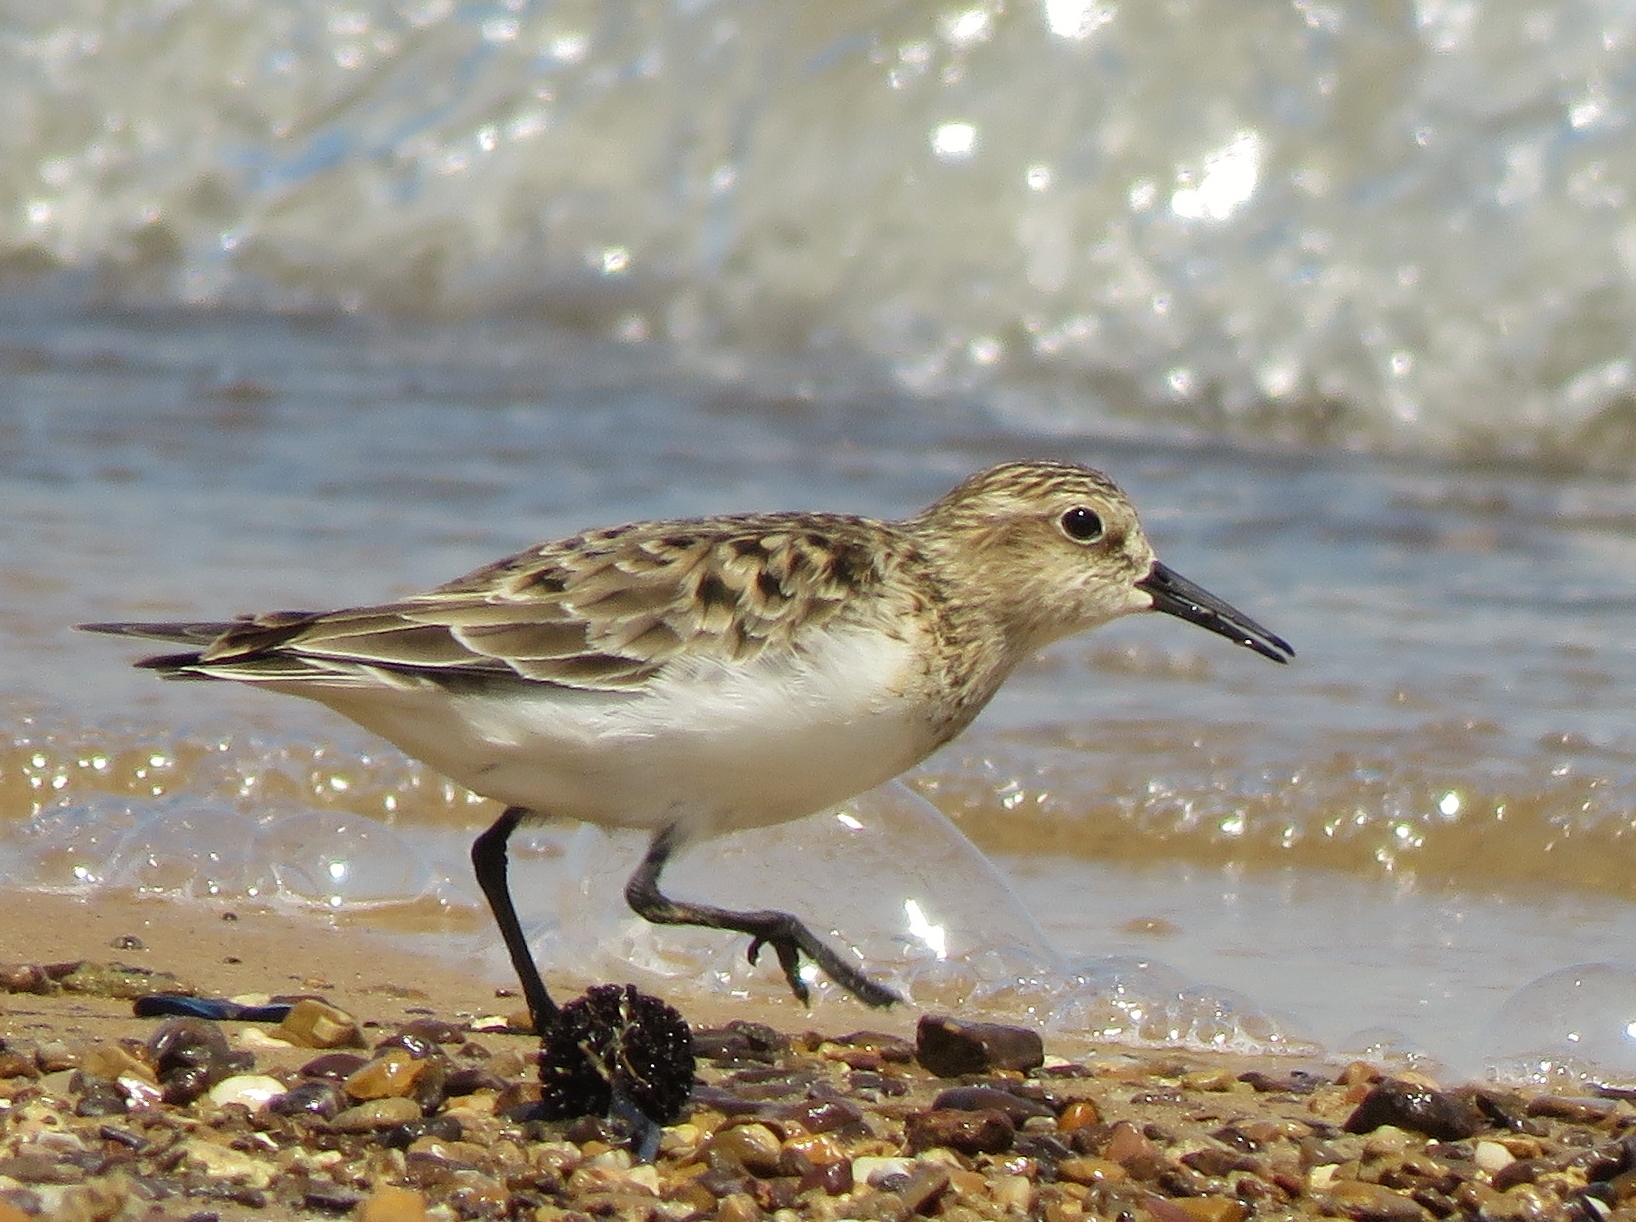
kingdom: Animalia
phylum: Chordata
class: Aves
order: Charadriiformes
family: Scolopacidae
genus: Calidris
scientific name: Calidris bairdii
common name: Baird's sandpiper
